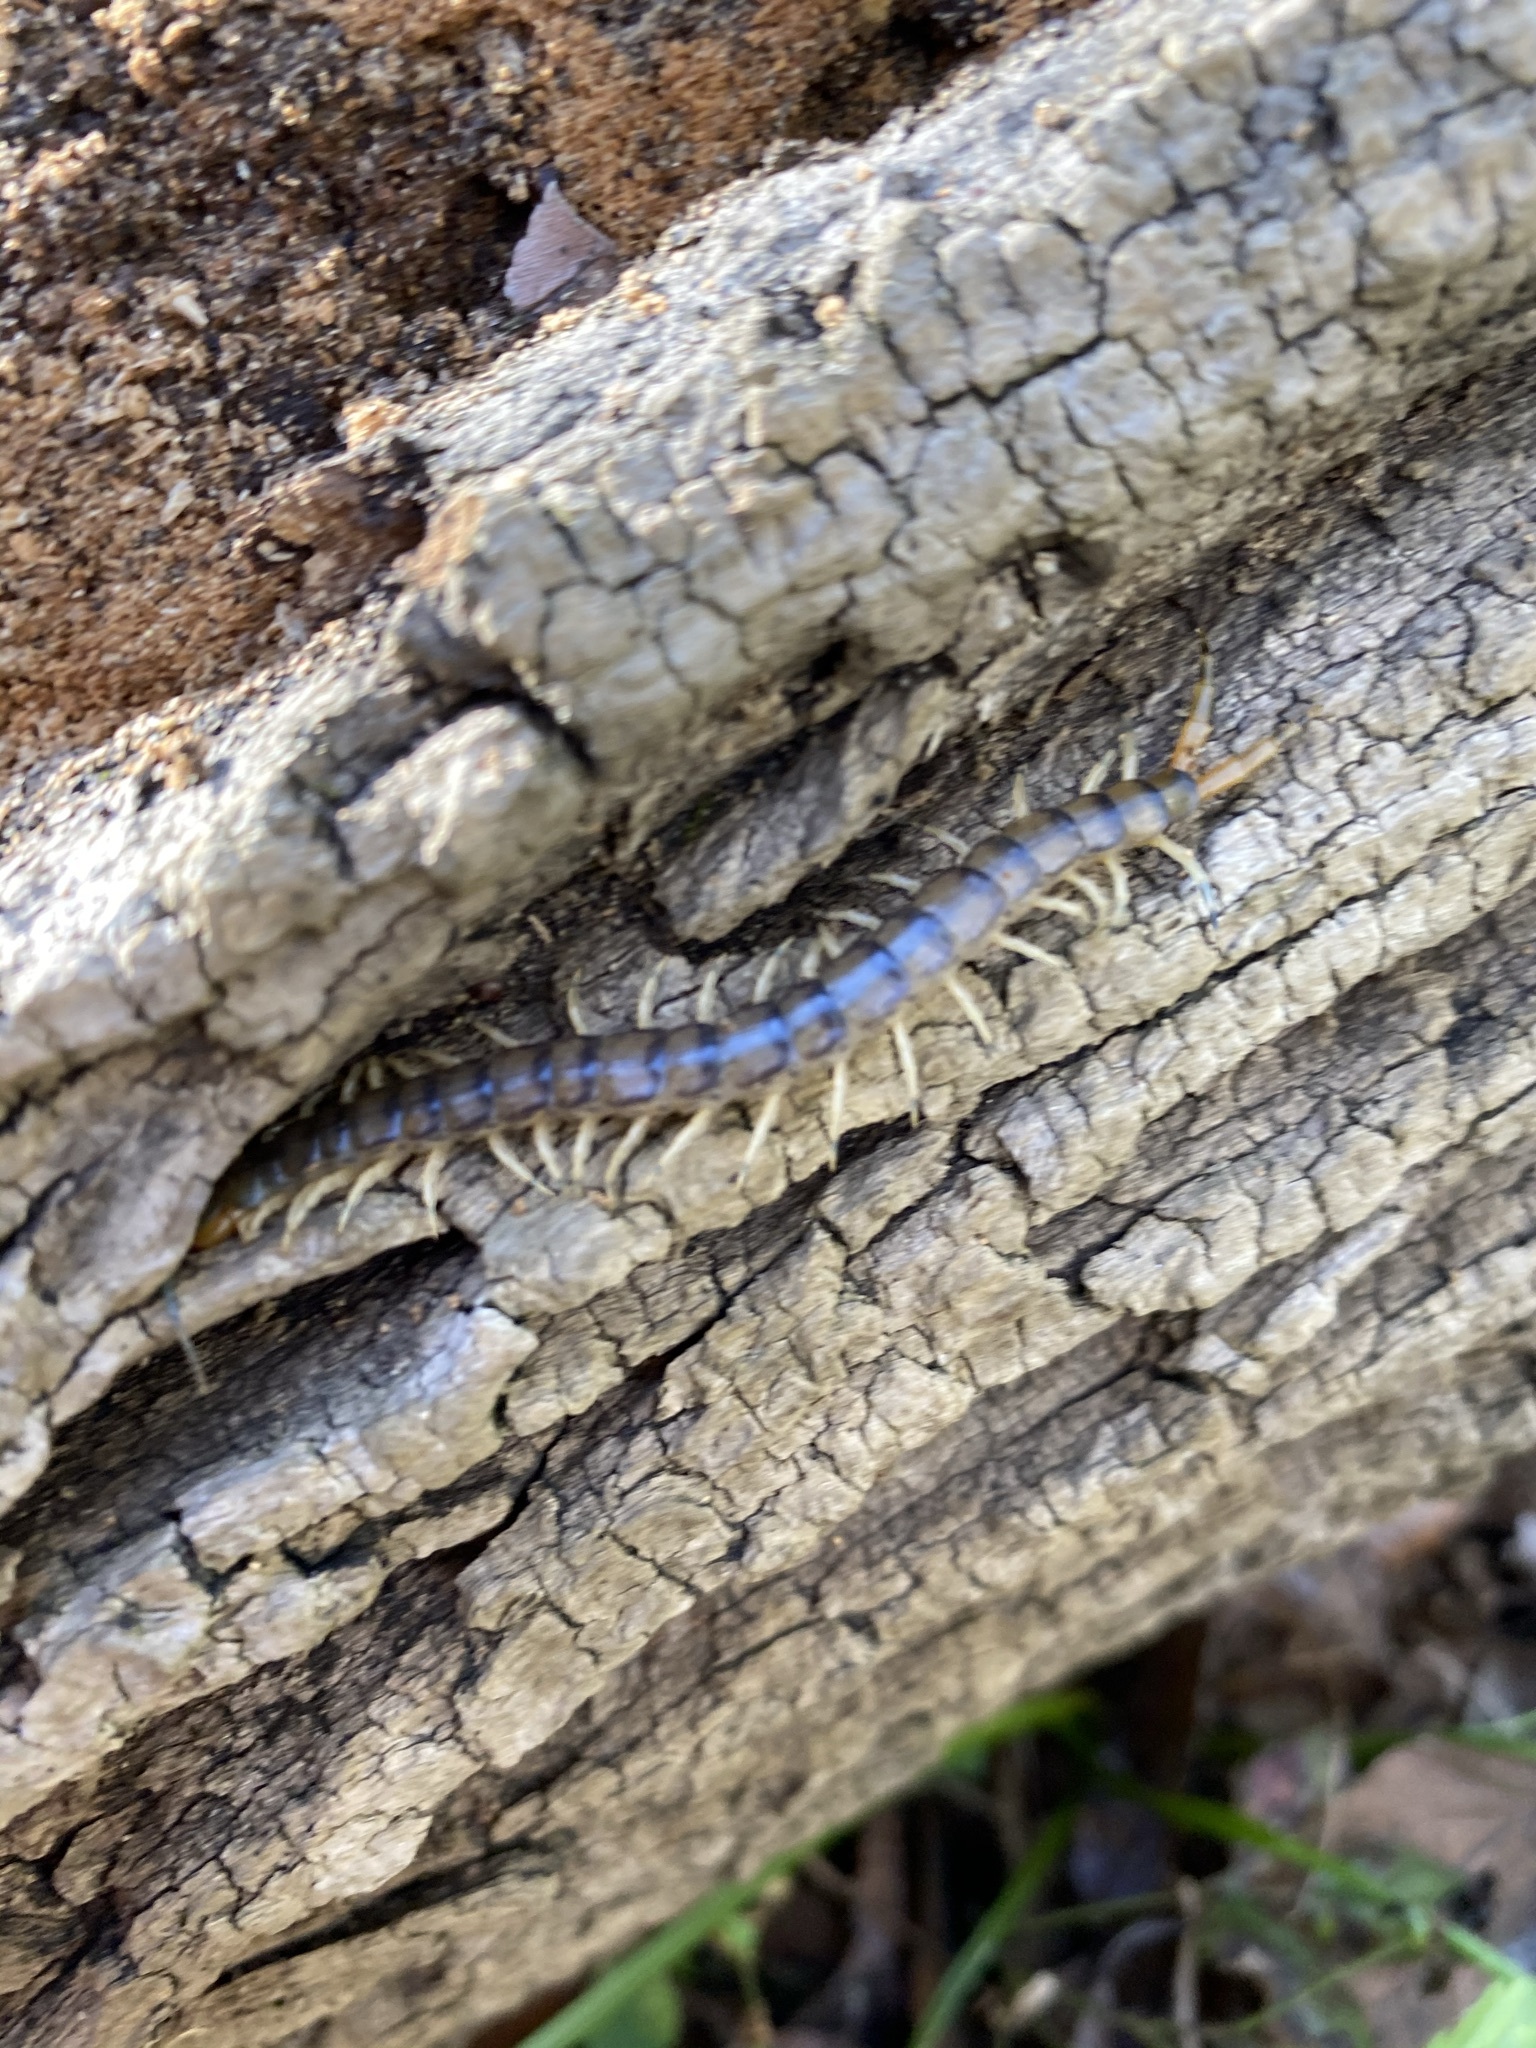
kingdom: Animalia
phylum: Arthropoda
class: Chilopoda
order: Scolopendromorpha
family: Scolopendridae
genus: Hemiscolopendra
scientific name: Hemiscolopendra marginata
